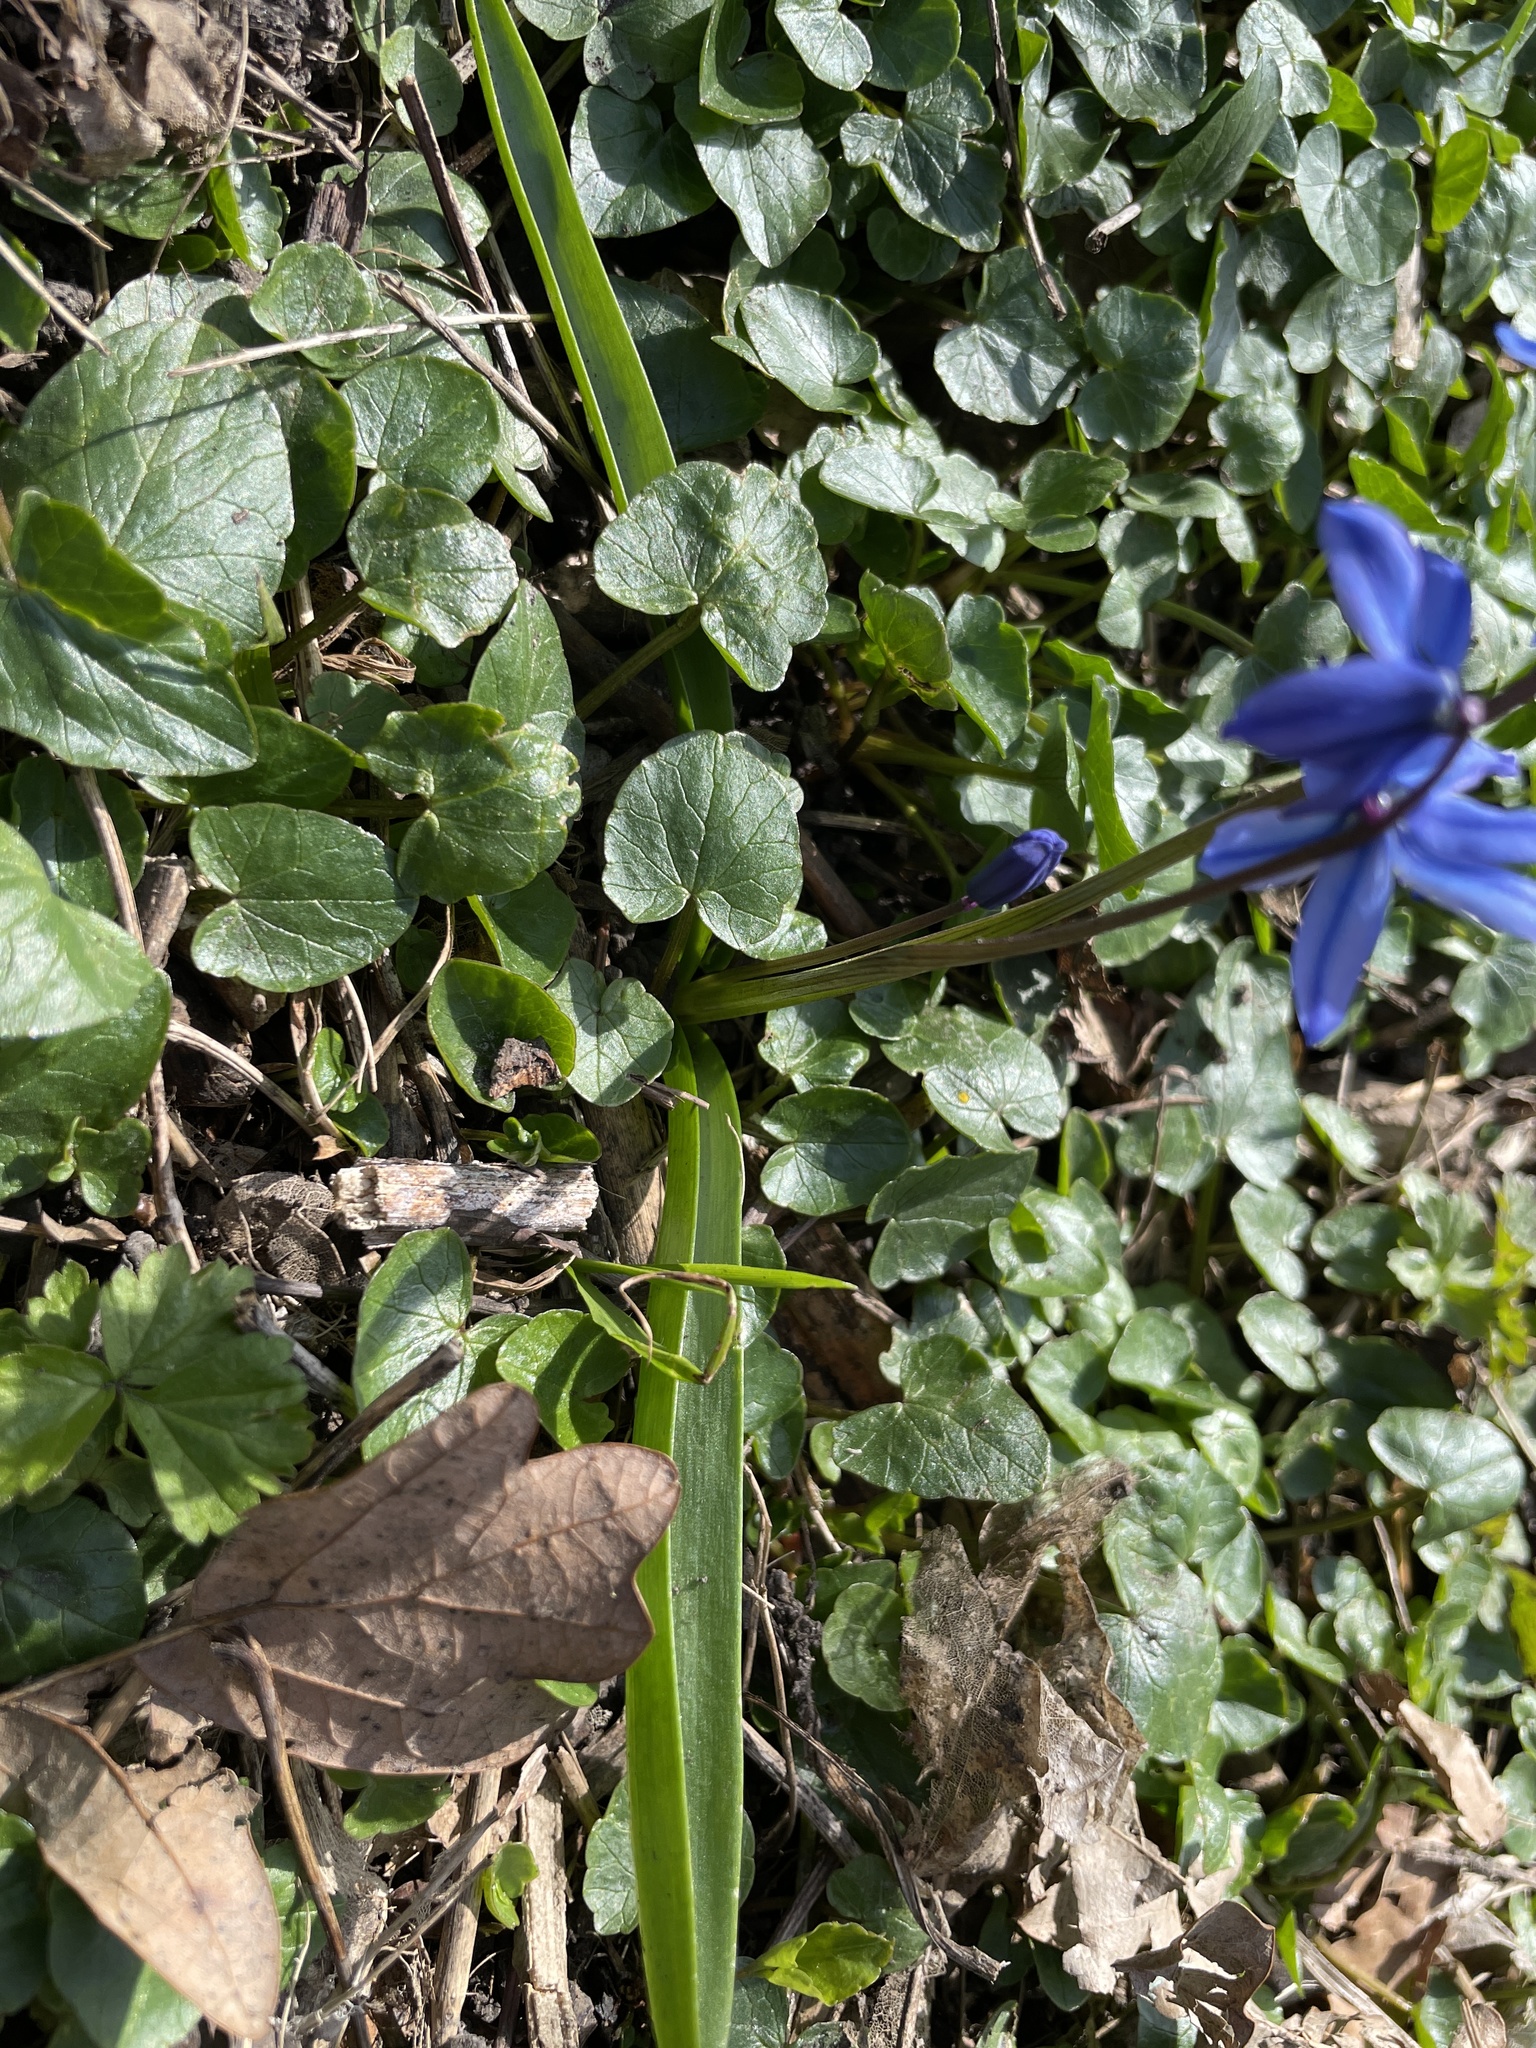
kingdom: Plantae
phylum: Tracheophyta
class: Liliopsida
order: Asparagales
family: Asparagaceae
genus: Scilla
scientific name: Scilla siberica
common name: Siberian squill
